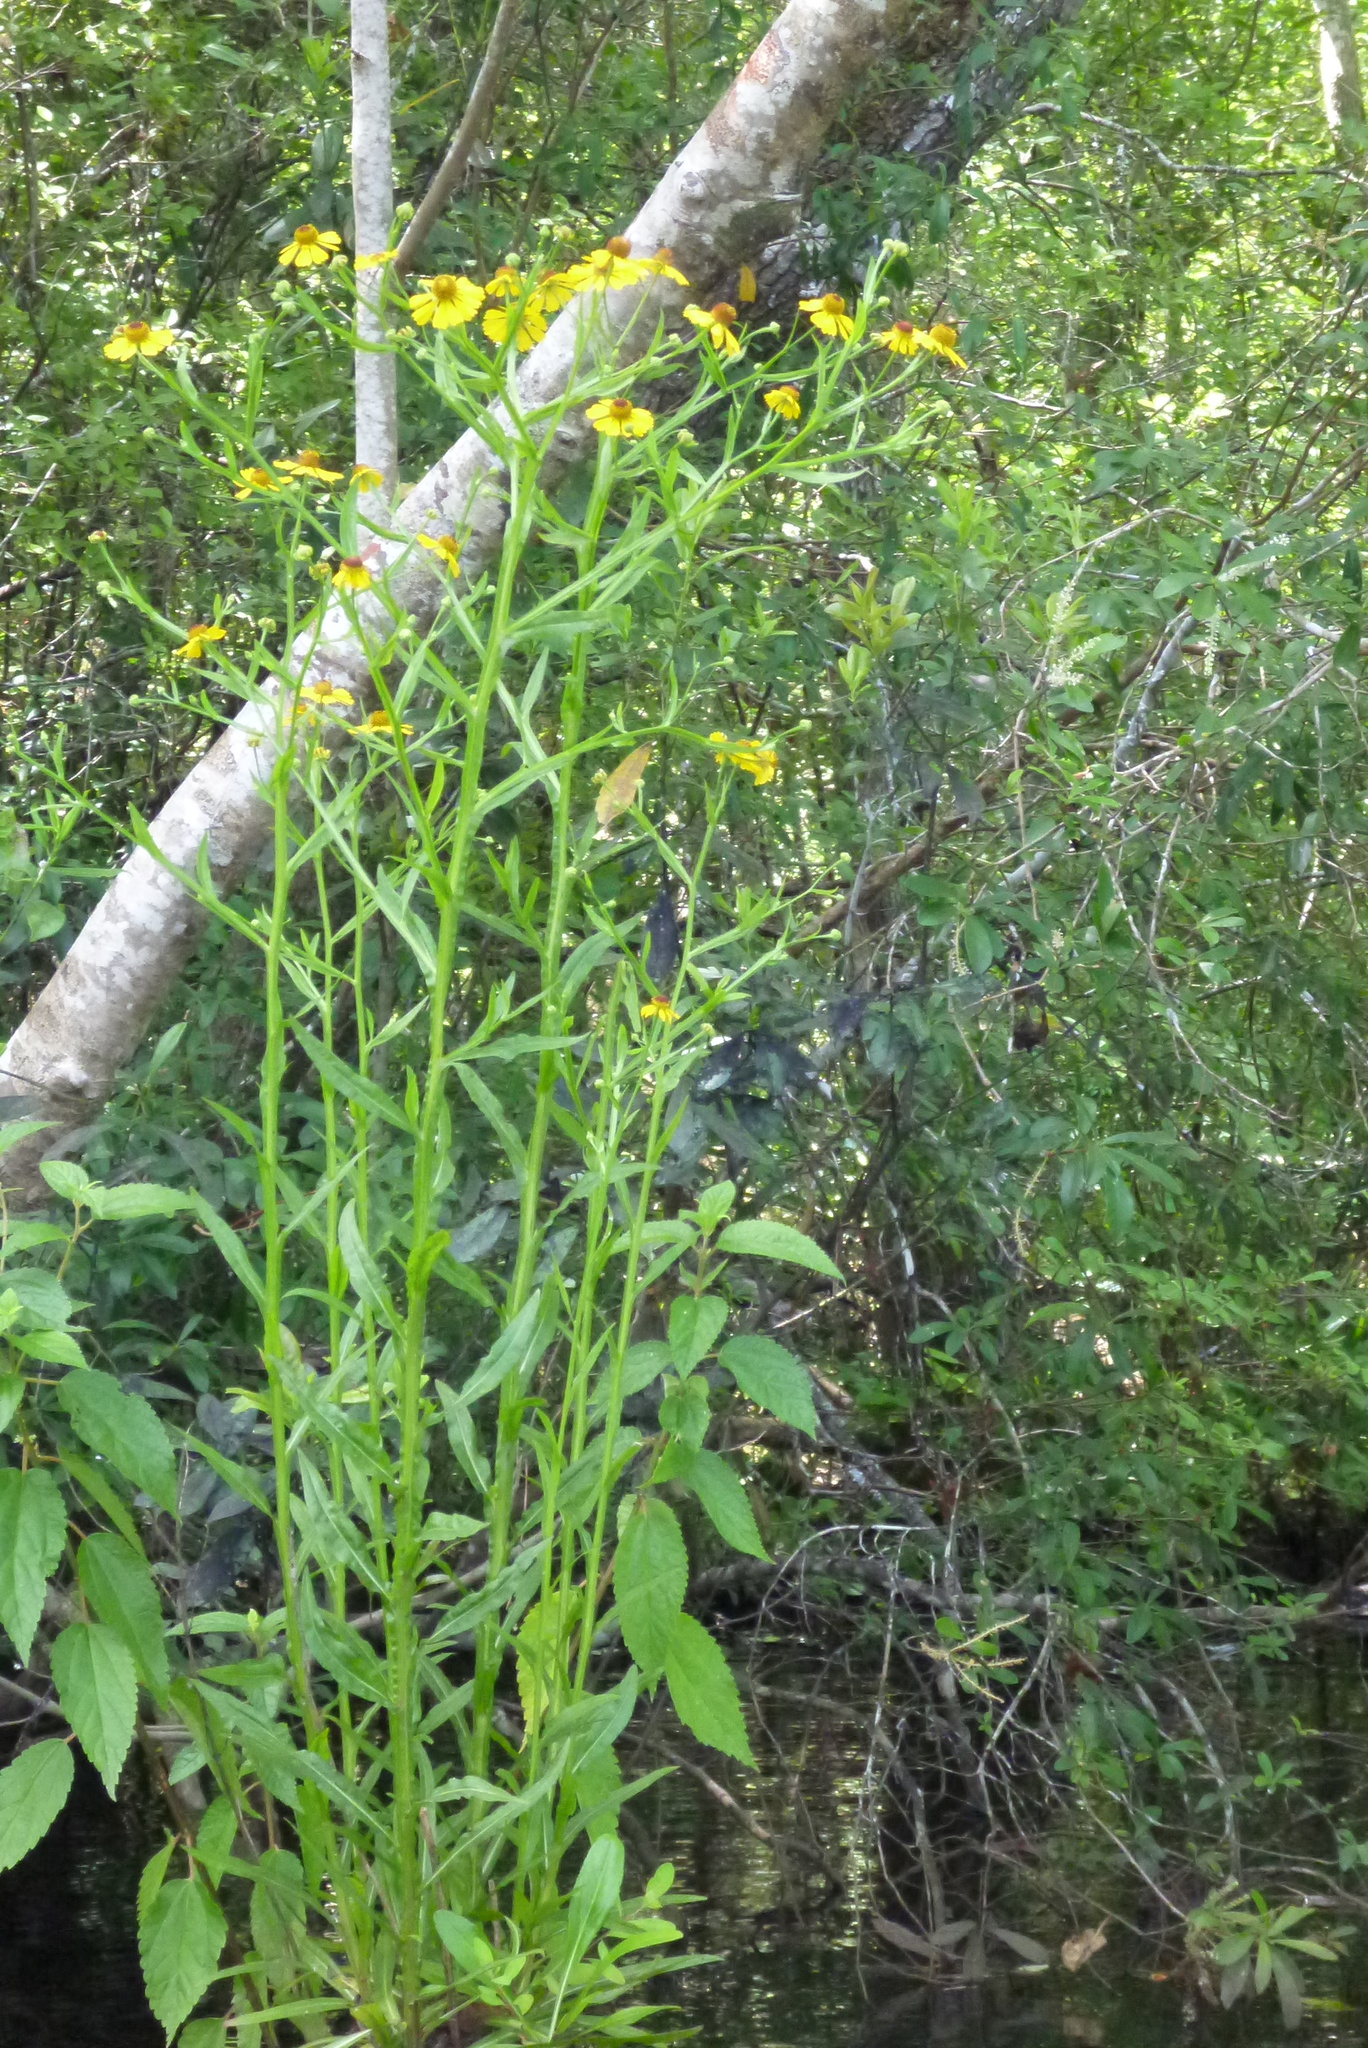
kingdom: Plantae
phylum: Tracheophyta
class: Magnoliopsida
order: Asterales
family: Asteraceae
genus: Helenium
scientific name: Helenium flexuosum
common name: Naked-flowered sneezeweed
